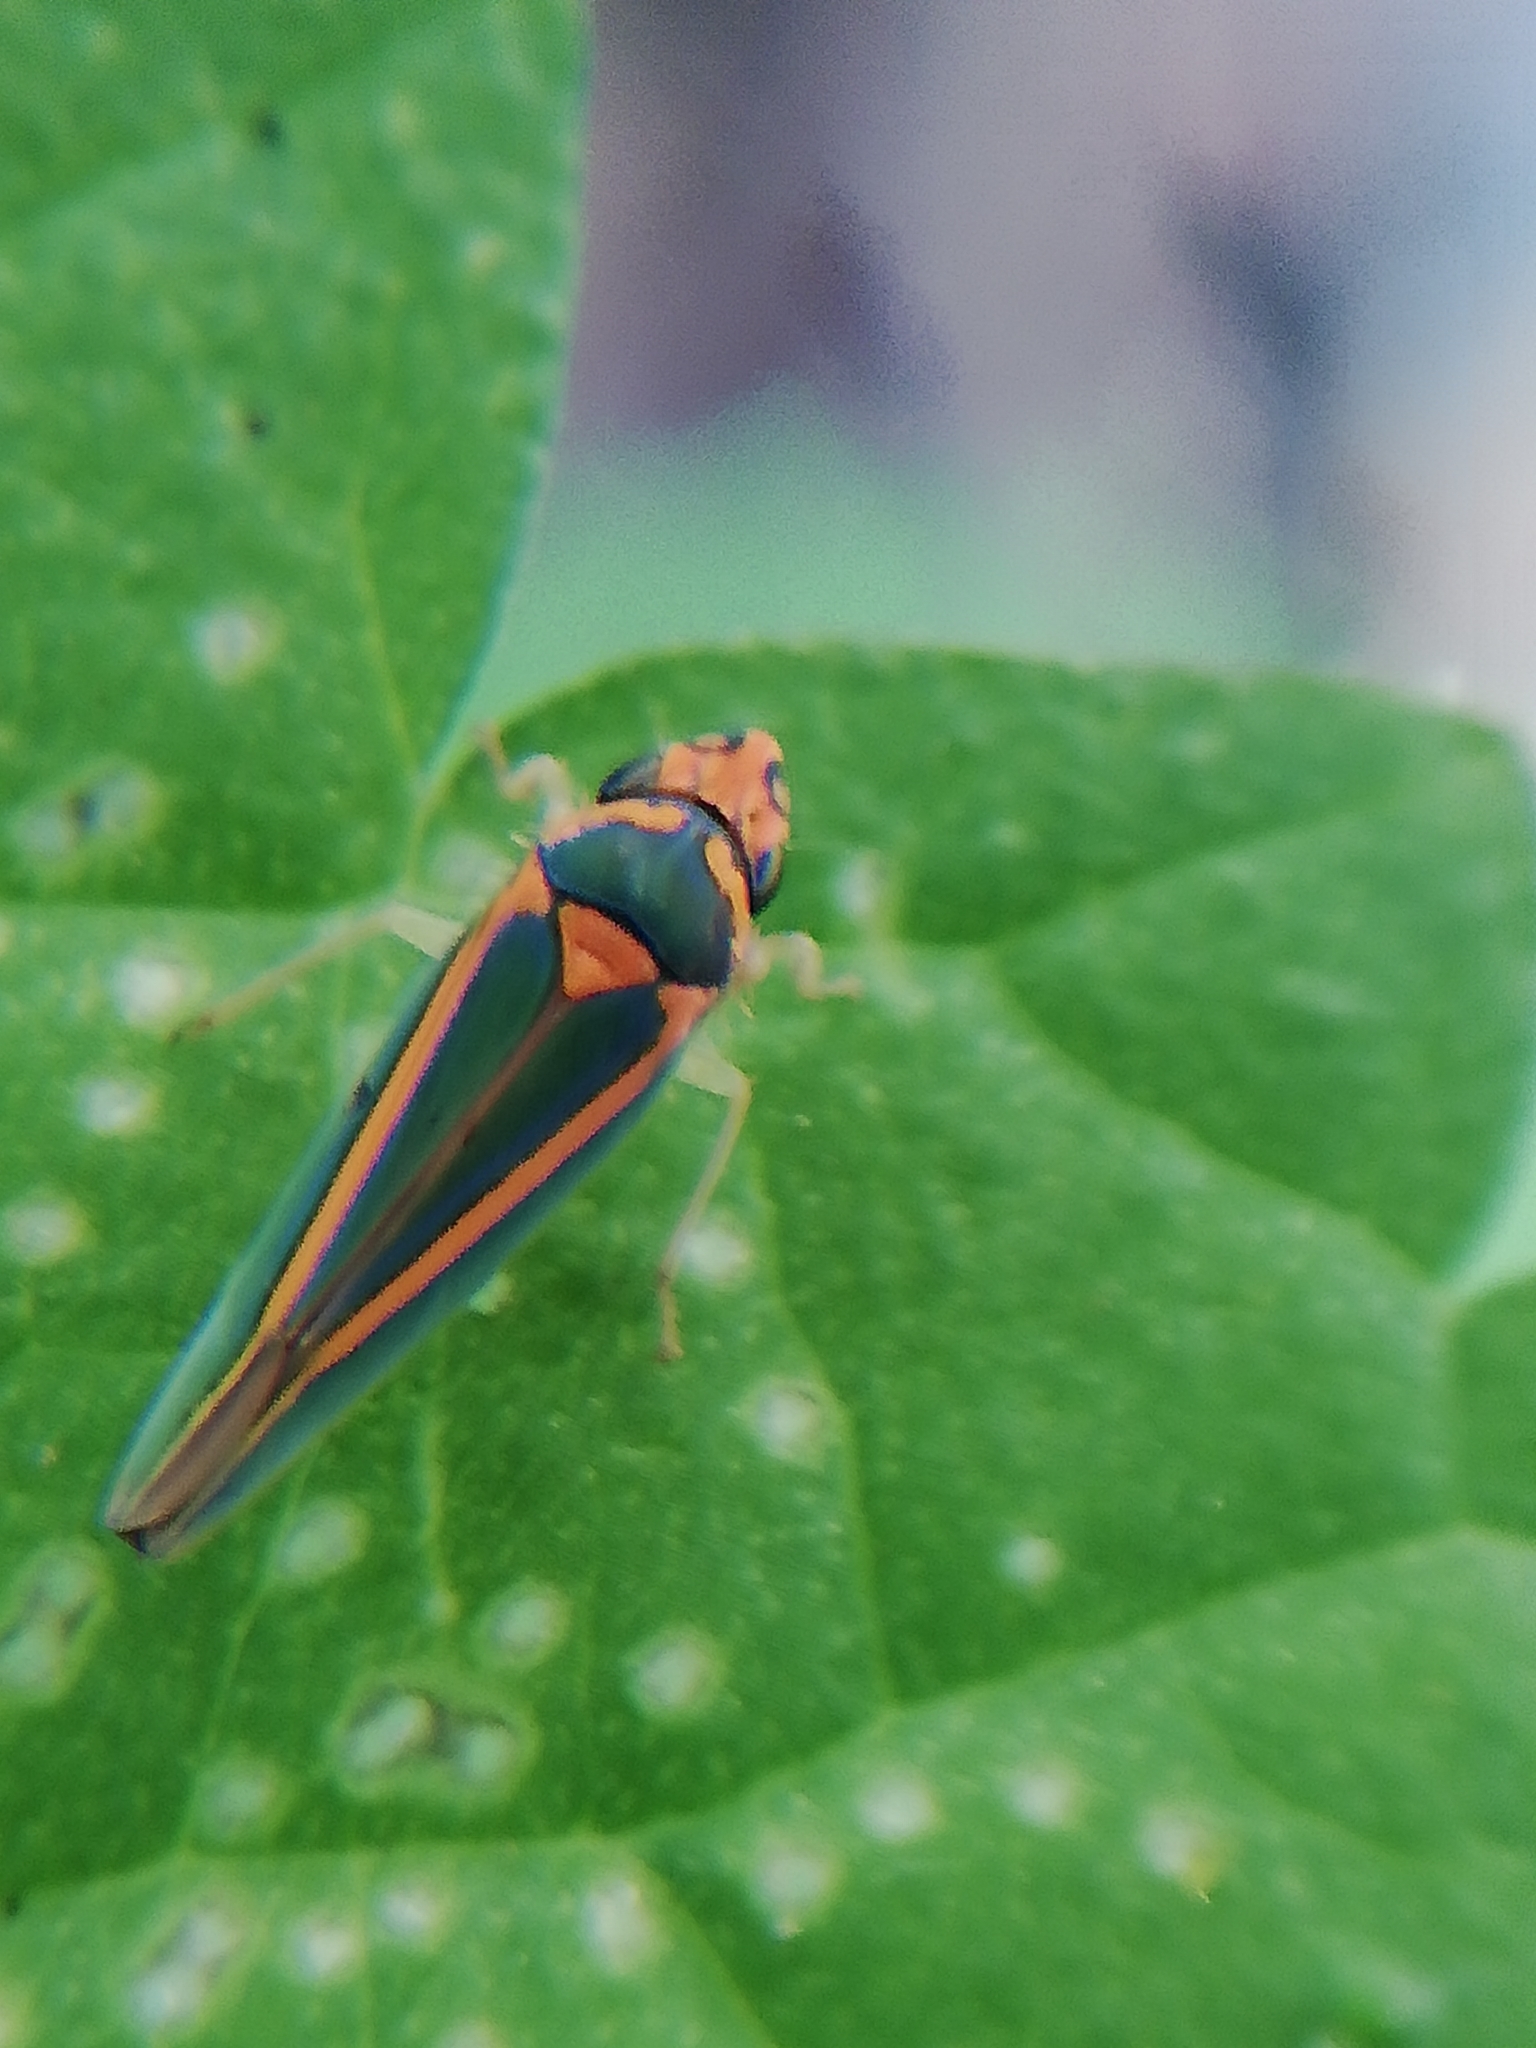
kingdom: Animalia
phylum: Arthropoda
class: Insecta
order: Hemiptera
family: Cicadellidae
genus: Graphocephala
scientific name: Graphocephala aurolineata
